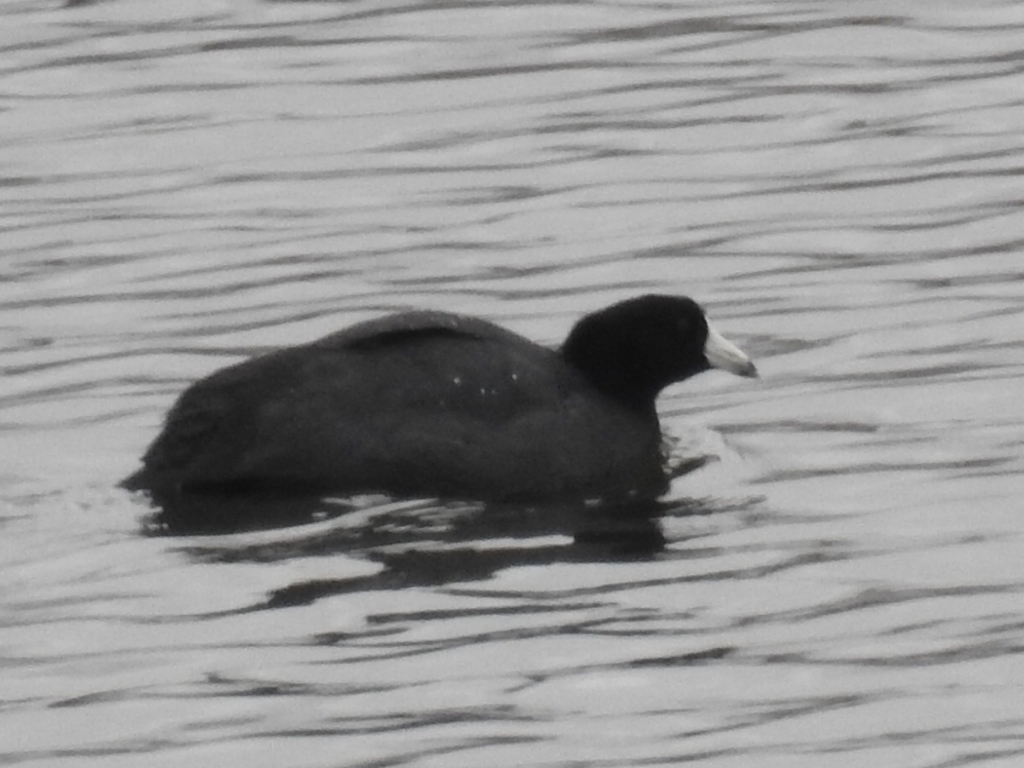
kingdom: Animalia
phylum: Chordata
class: Aves
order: Gruiformes
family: Rallidae
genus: Fulica
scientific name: Fulica americana
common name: American coot
